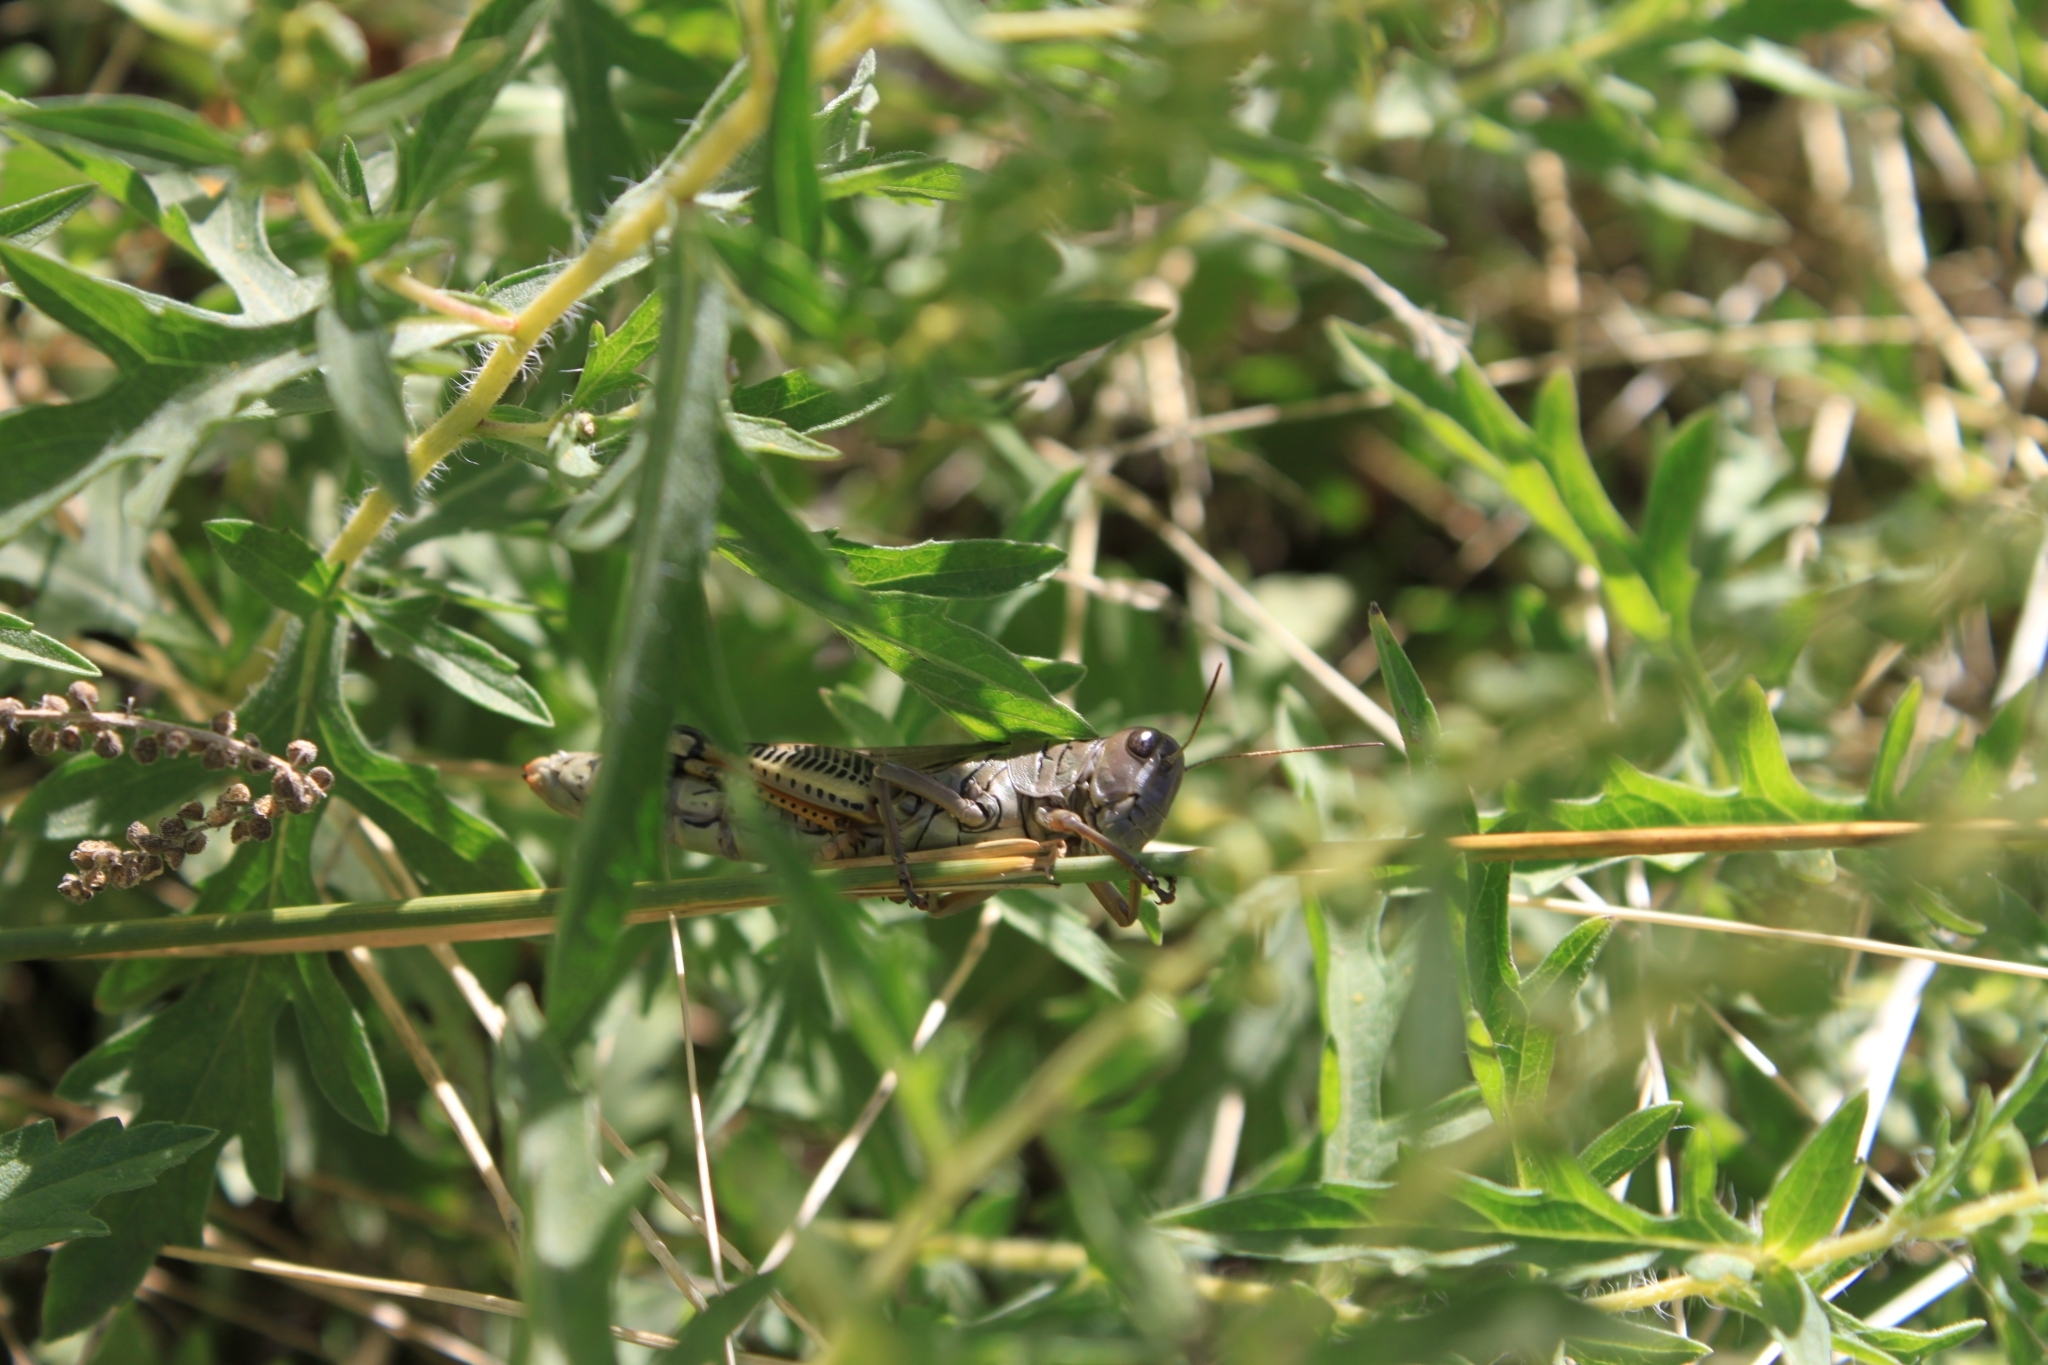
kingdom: Animalia
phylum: Arthropoda
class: Insecta
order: Orthoptera
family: Acrididae
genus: Melanoplus
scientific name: Melanoplus differentialis
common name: Differential grasshopper
